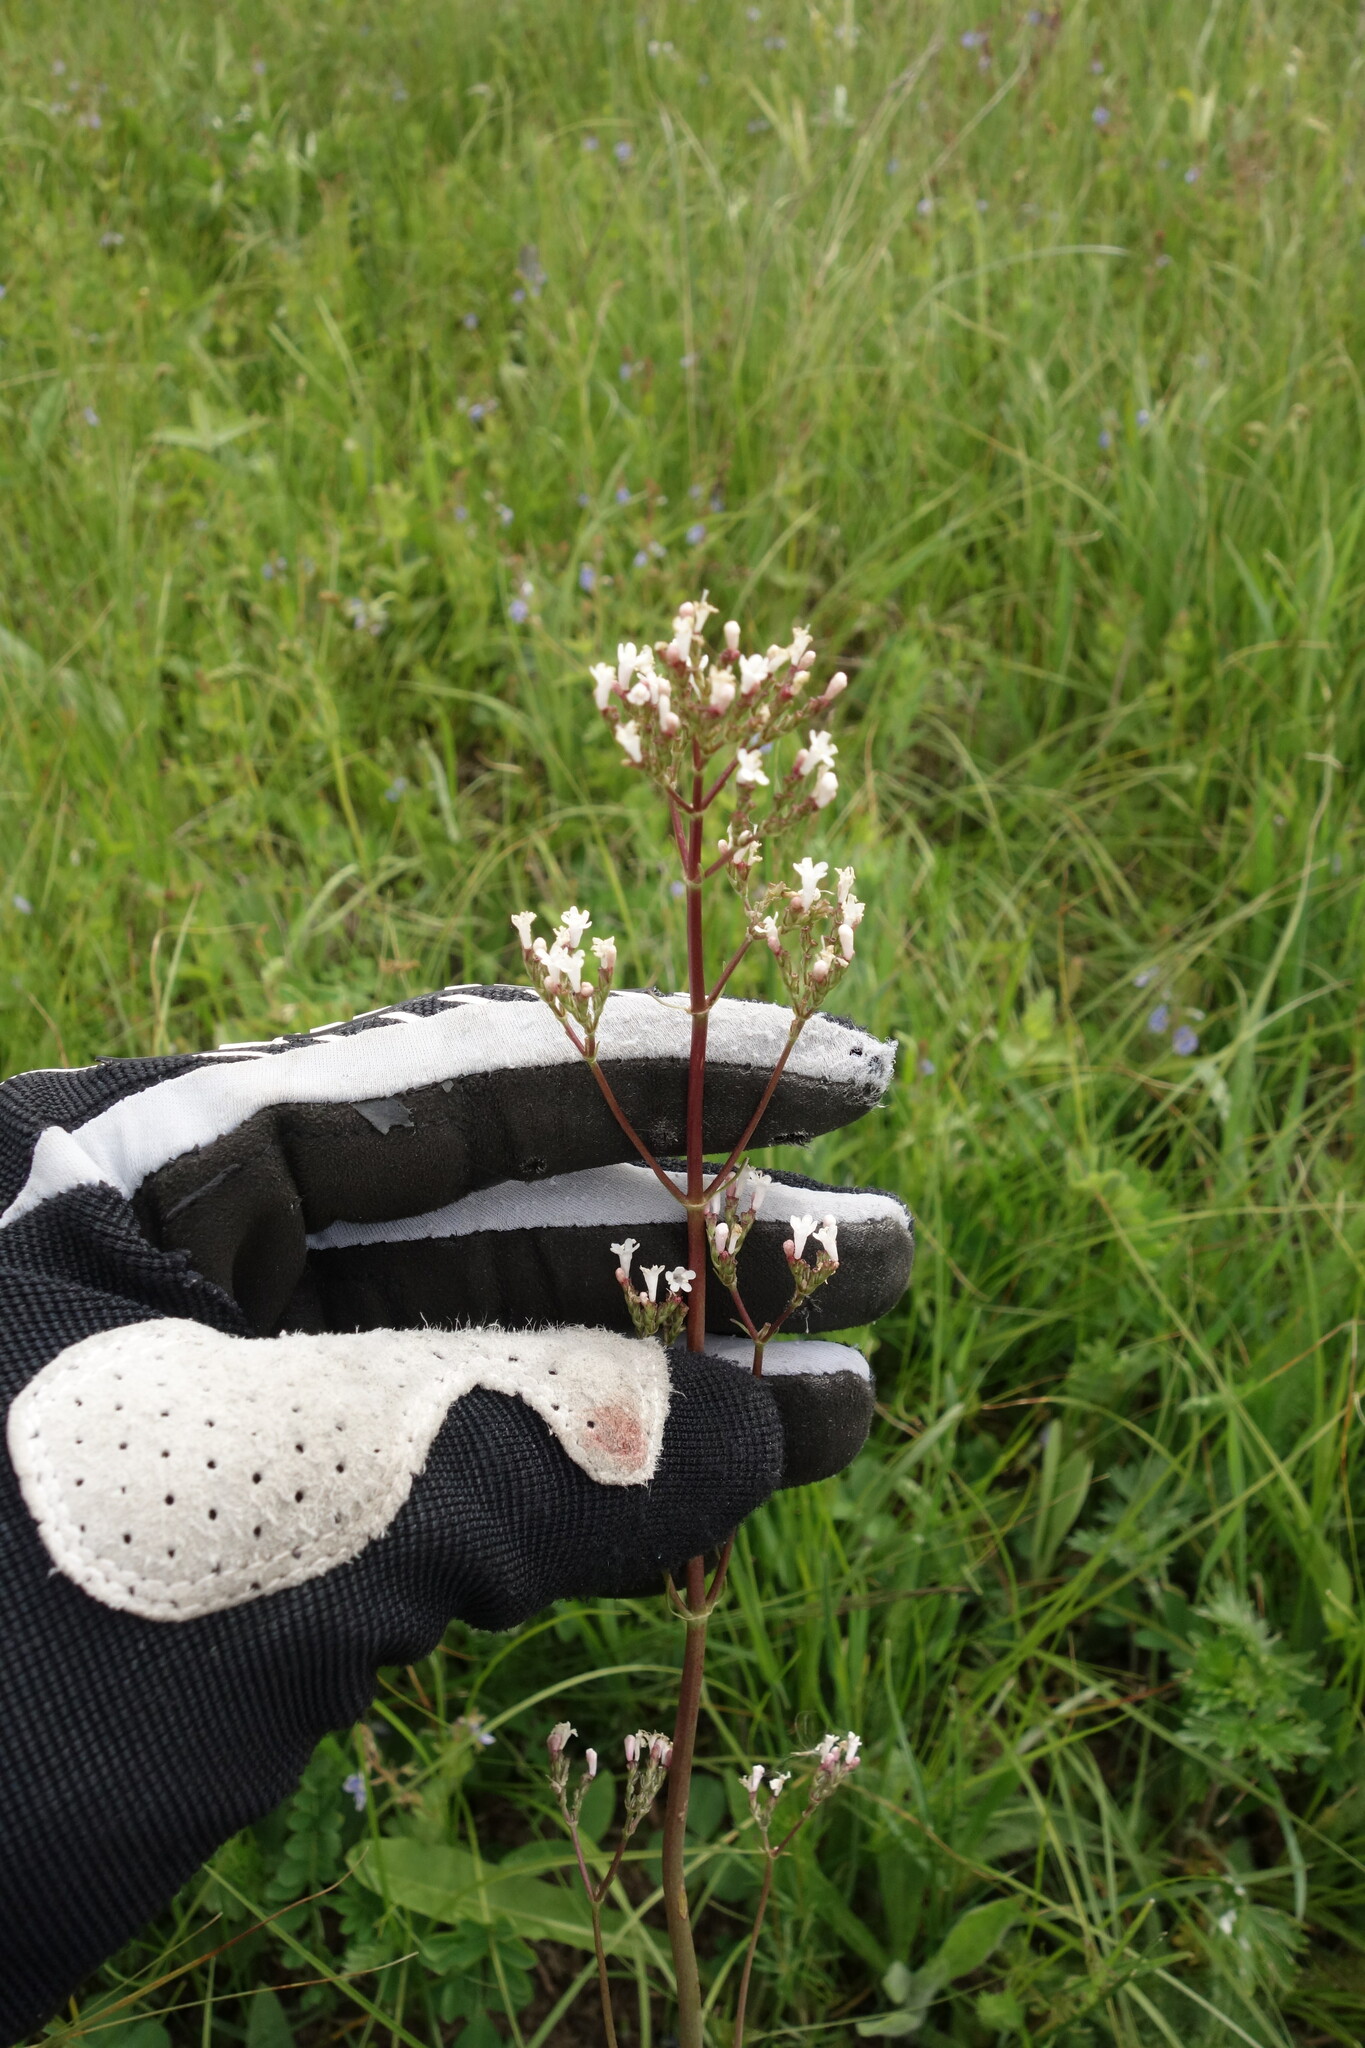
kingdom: Plantae
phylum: Tracheophyta
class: Magnoliopsida
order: Dipsacales
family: Caprifoliaceae
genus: Valeriana
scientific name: Valeriana tuberosa
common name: Tuberous valerian
